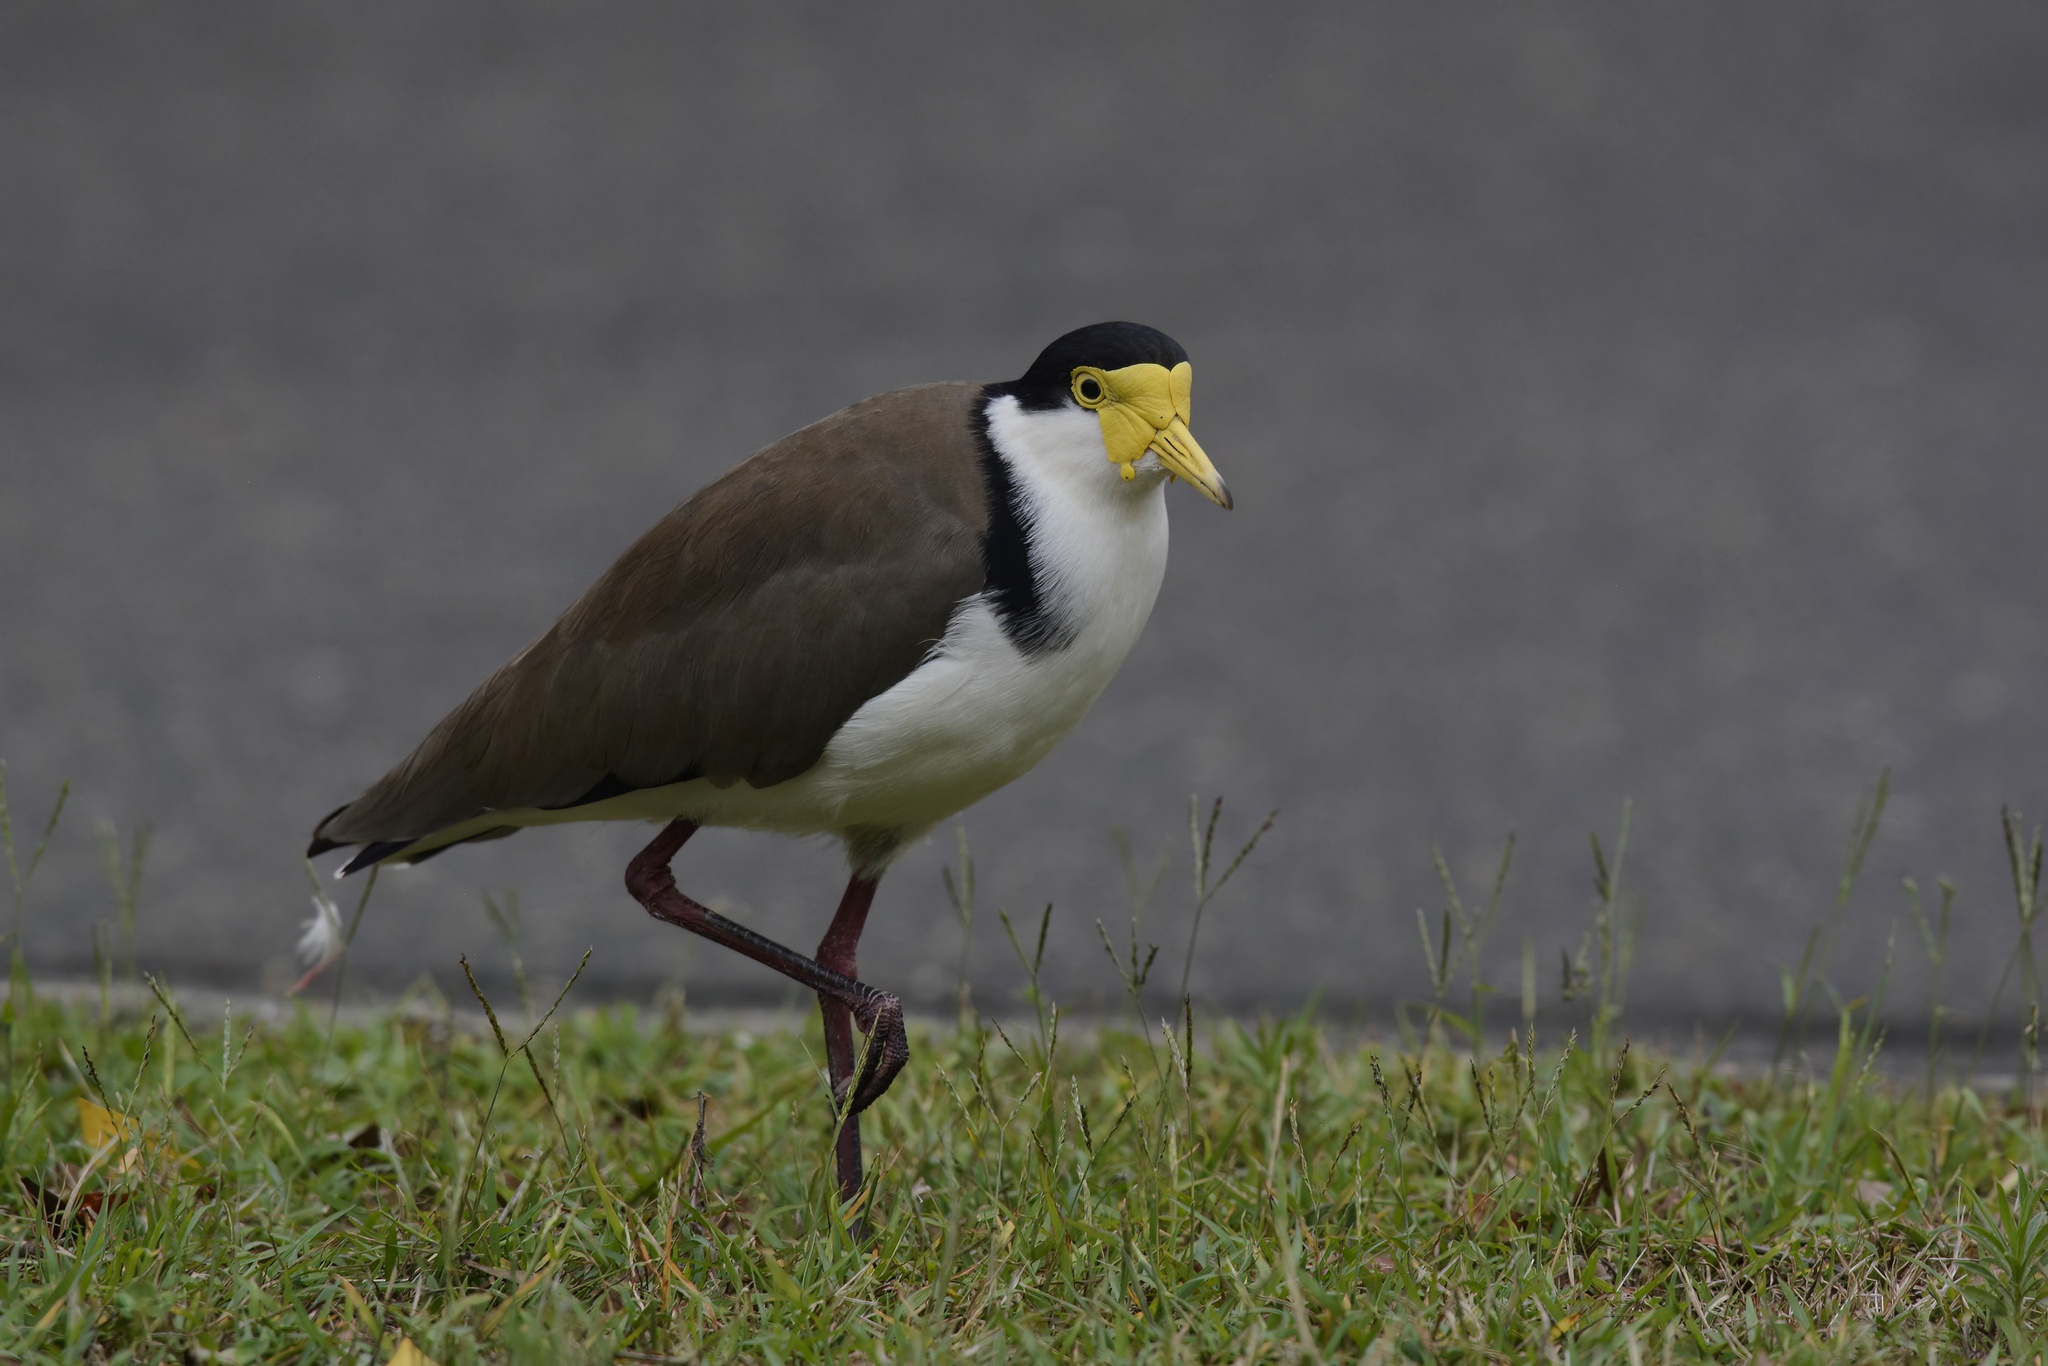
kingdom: Animalia
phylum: Chordata
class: Aves
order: Charadriiformes
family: Charadriidae
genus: Vanellus
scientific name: Vanellus miles
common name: Masked lapwing
